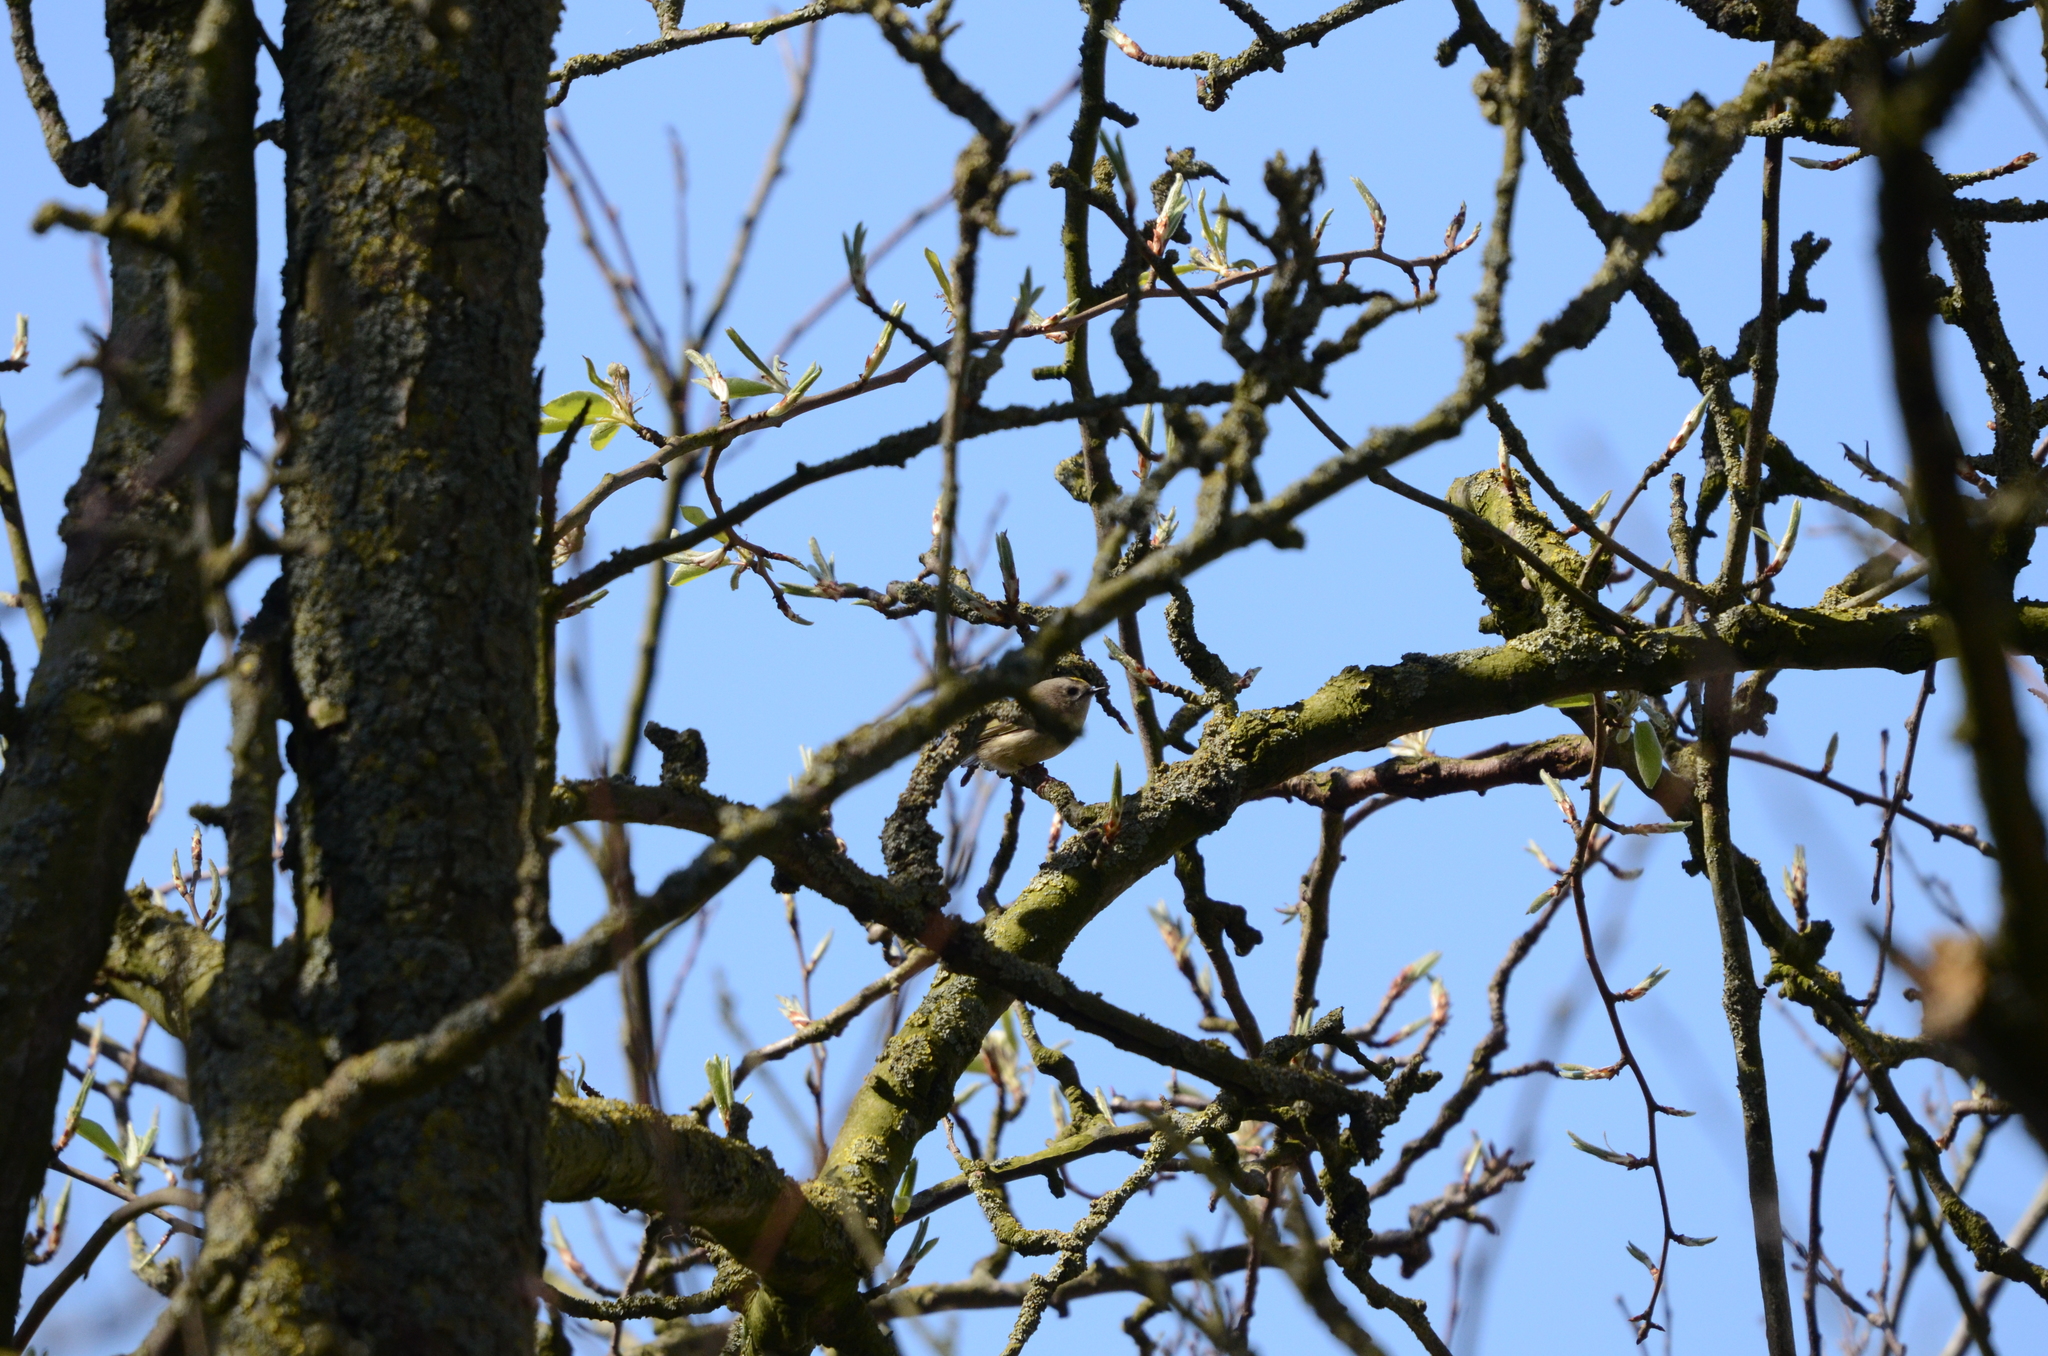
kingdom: Animalia
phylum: Chordata
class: Aves
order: Passeriformes
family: Regulidae
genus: Regulus
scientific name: Regulus regulus
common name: Goldcrest
